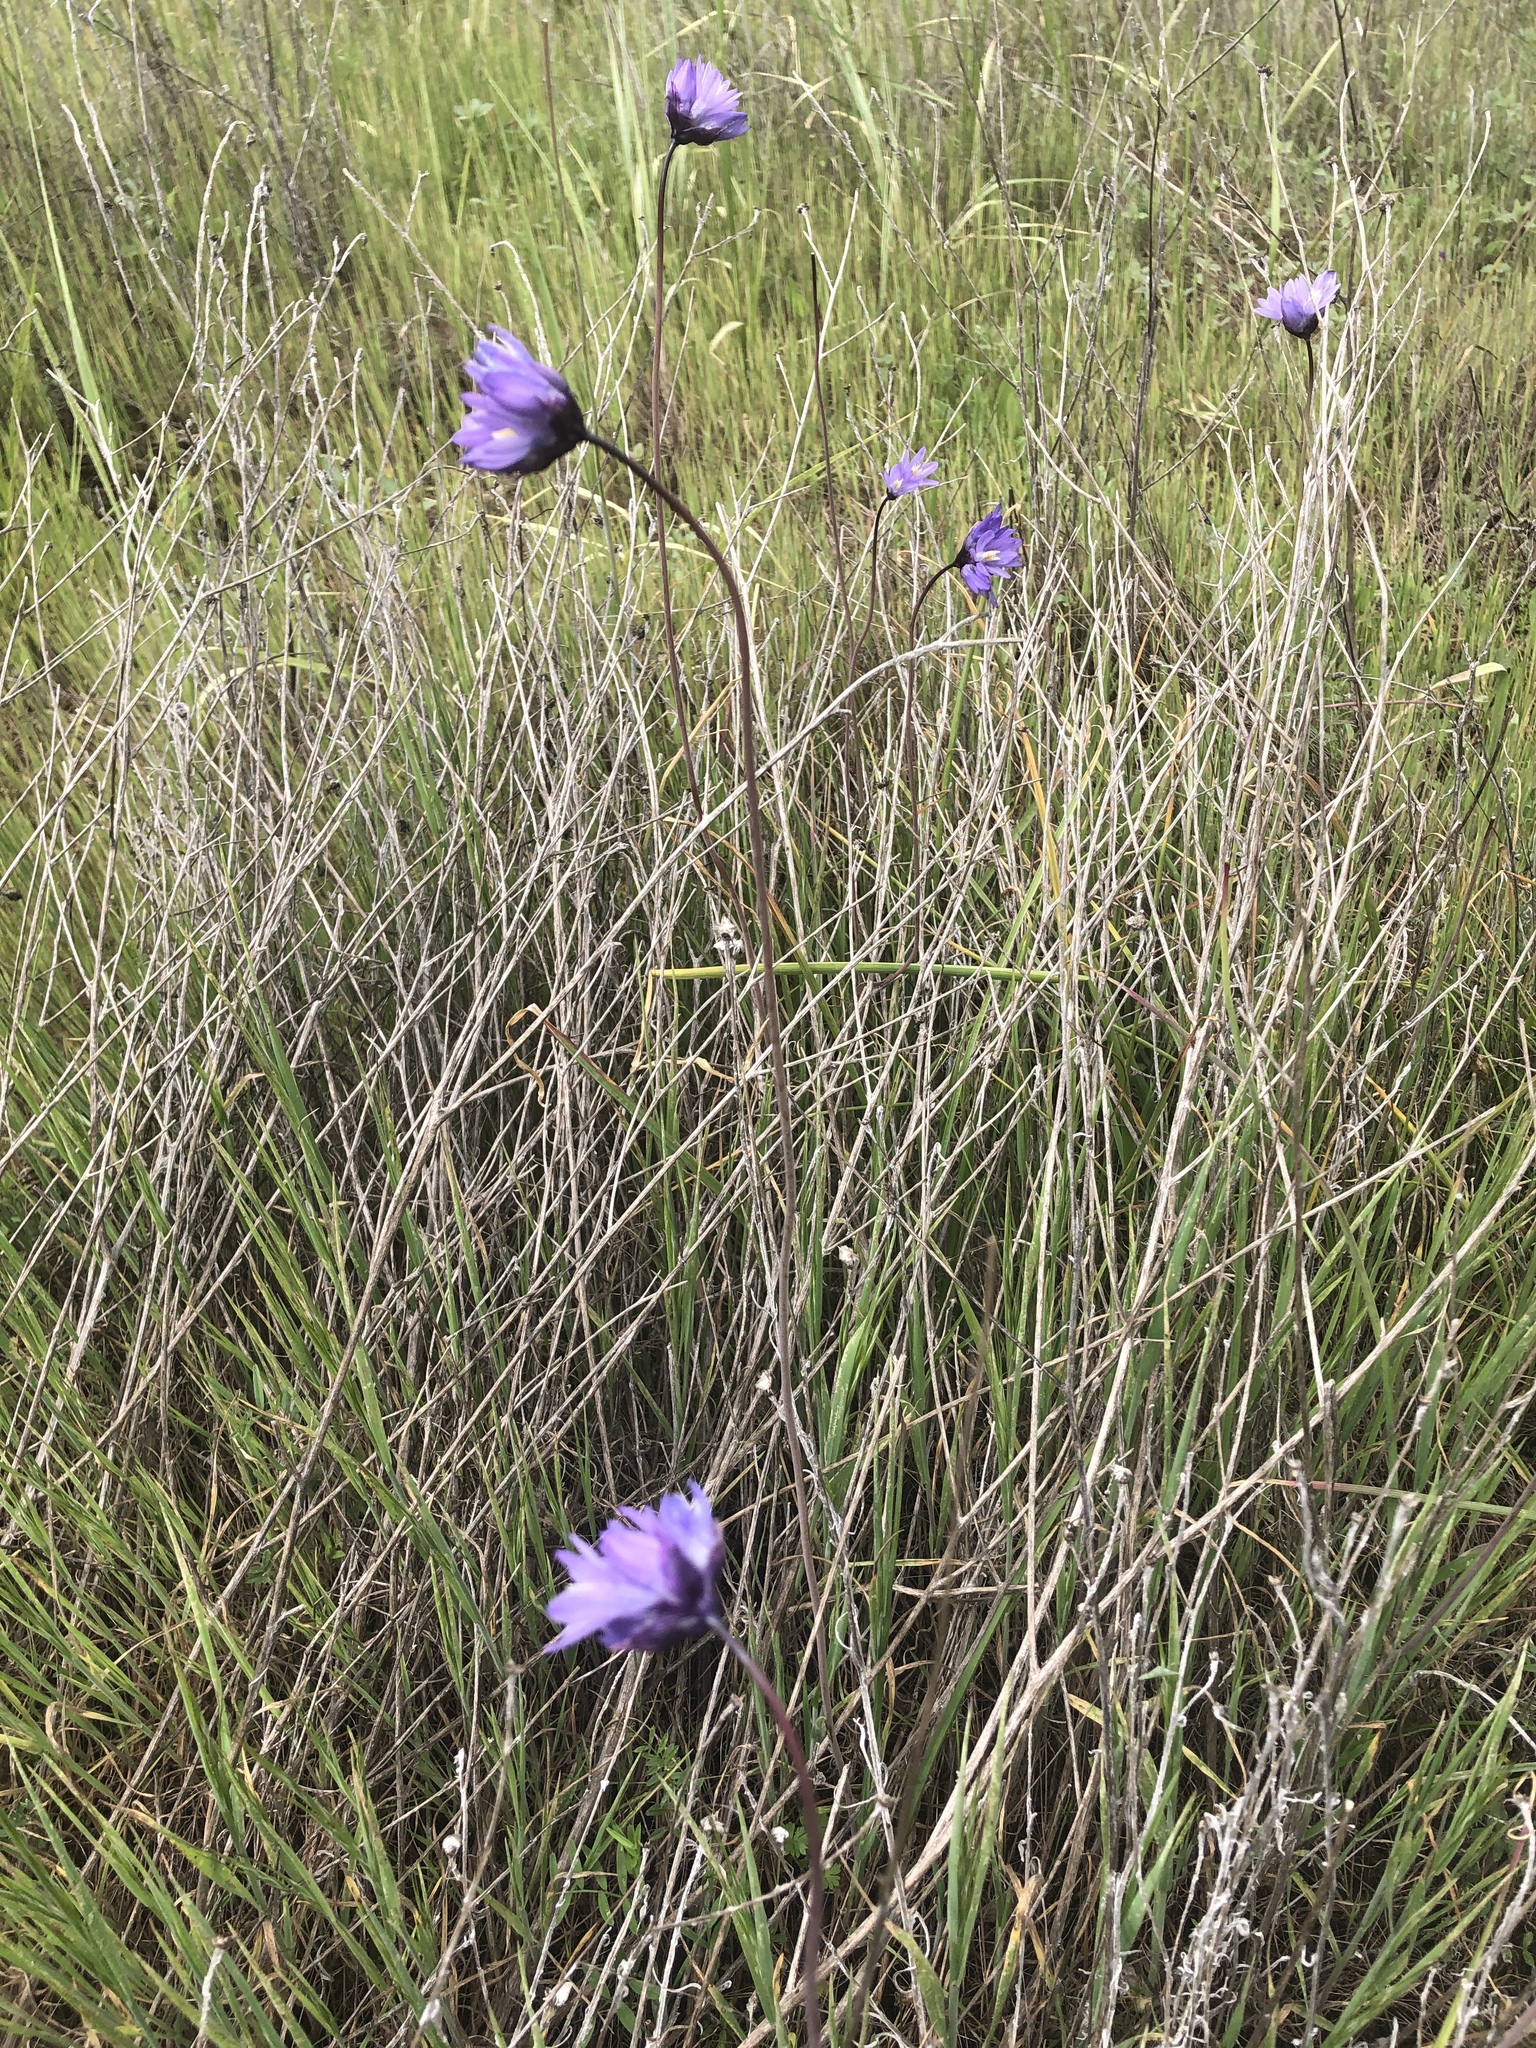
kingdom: Plantae
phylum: Tracheophyta
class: Liliopsida
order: Asparagales
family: Asparagaceae
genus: Dipterostemon
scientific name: Dipterostemon capitatus
